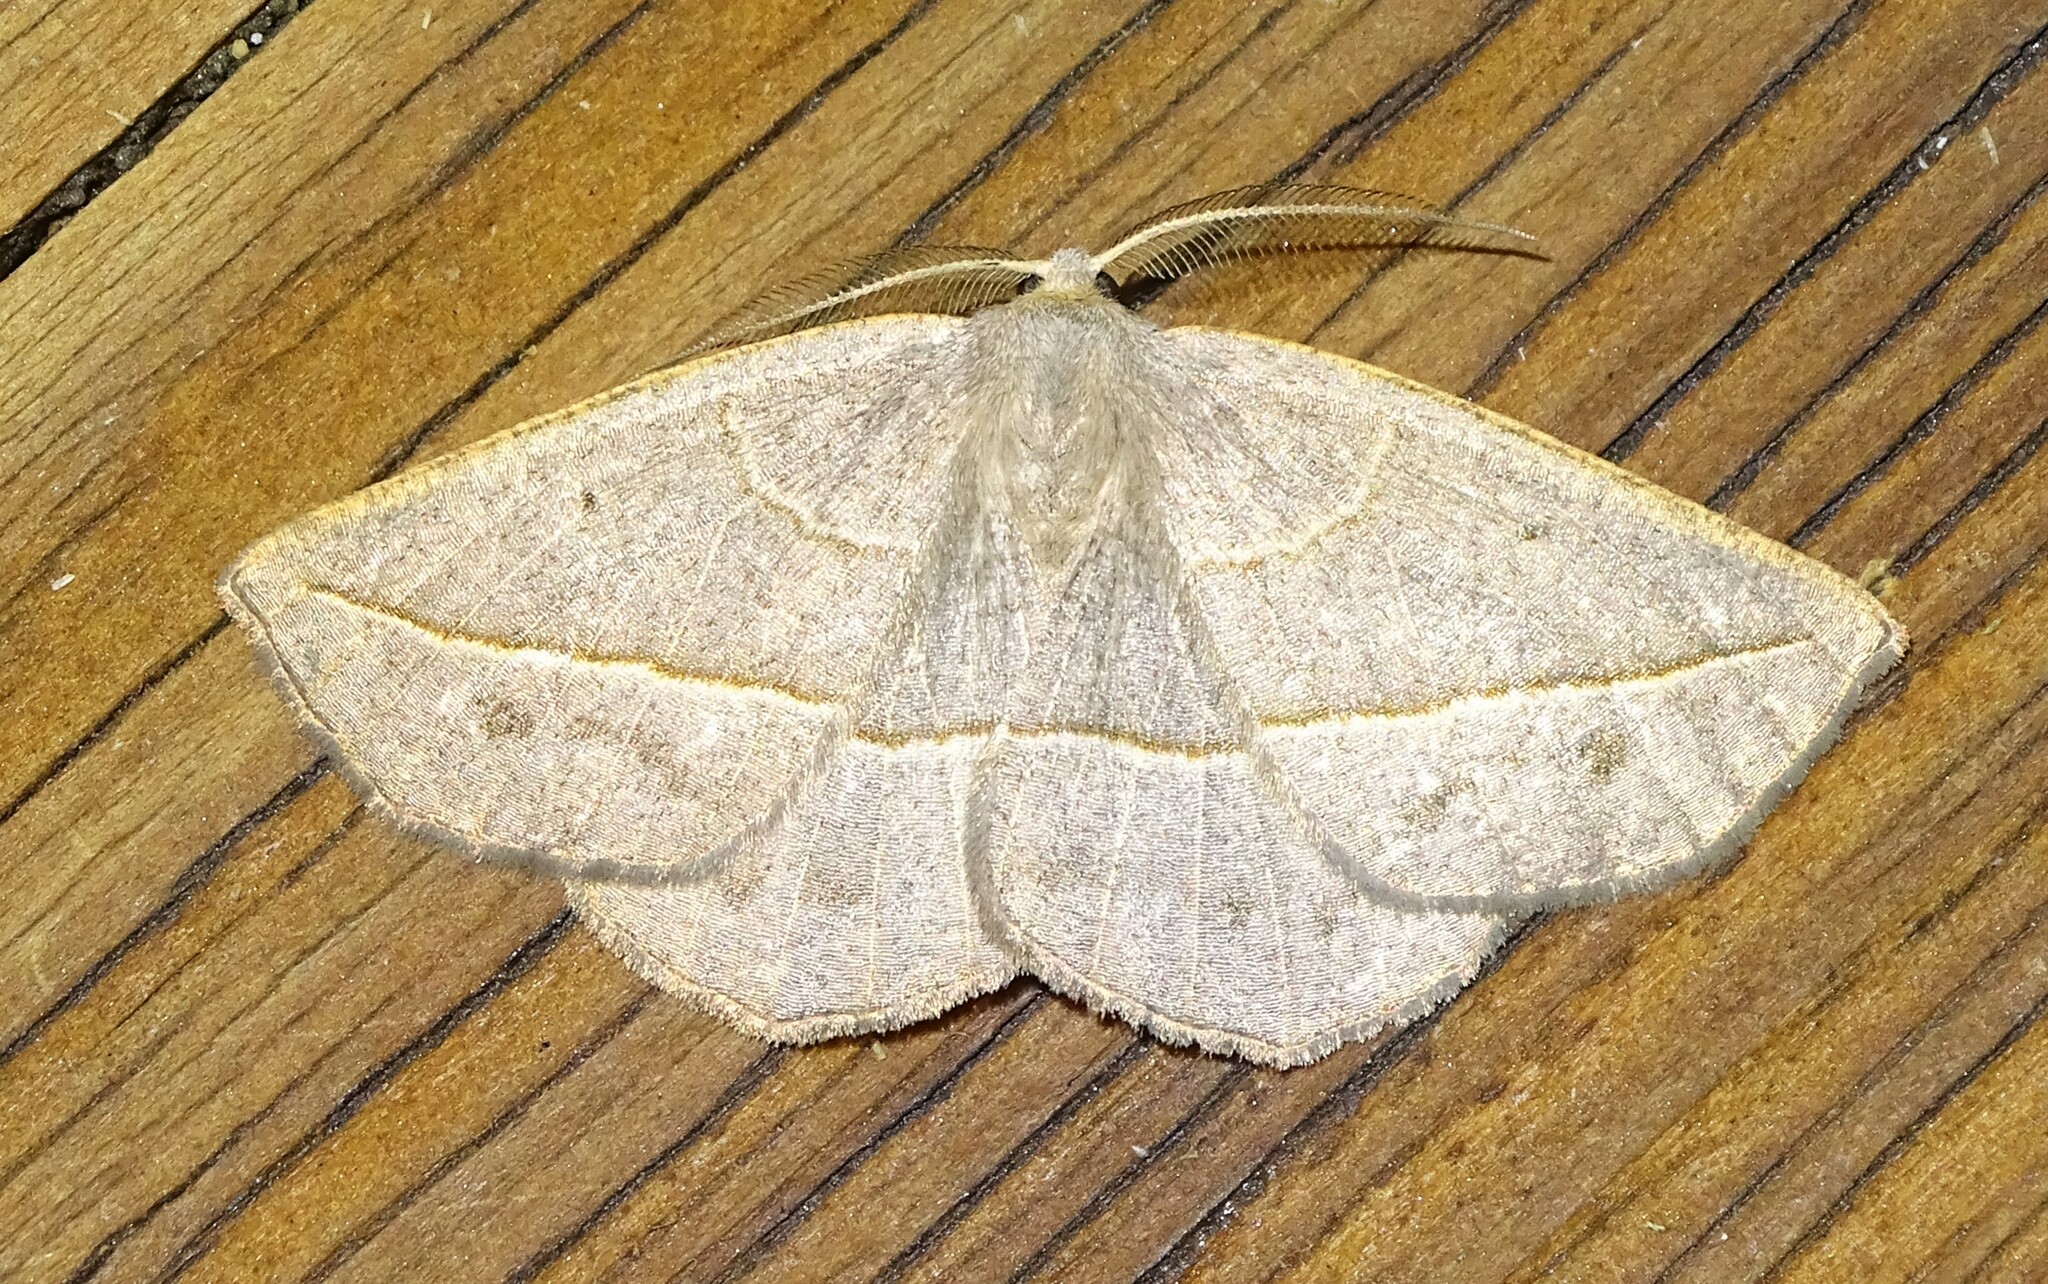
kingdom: Animalia
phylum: Arthropoda
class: Insecta
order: Lepidoptera
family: Geometridae
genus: Eusarca
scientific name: Eusarca confusaria
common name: Confused eusarca
